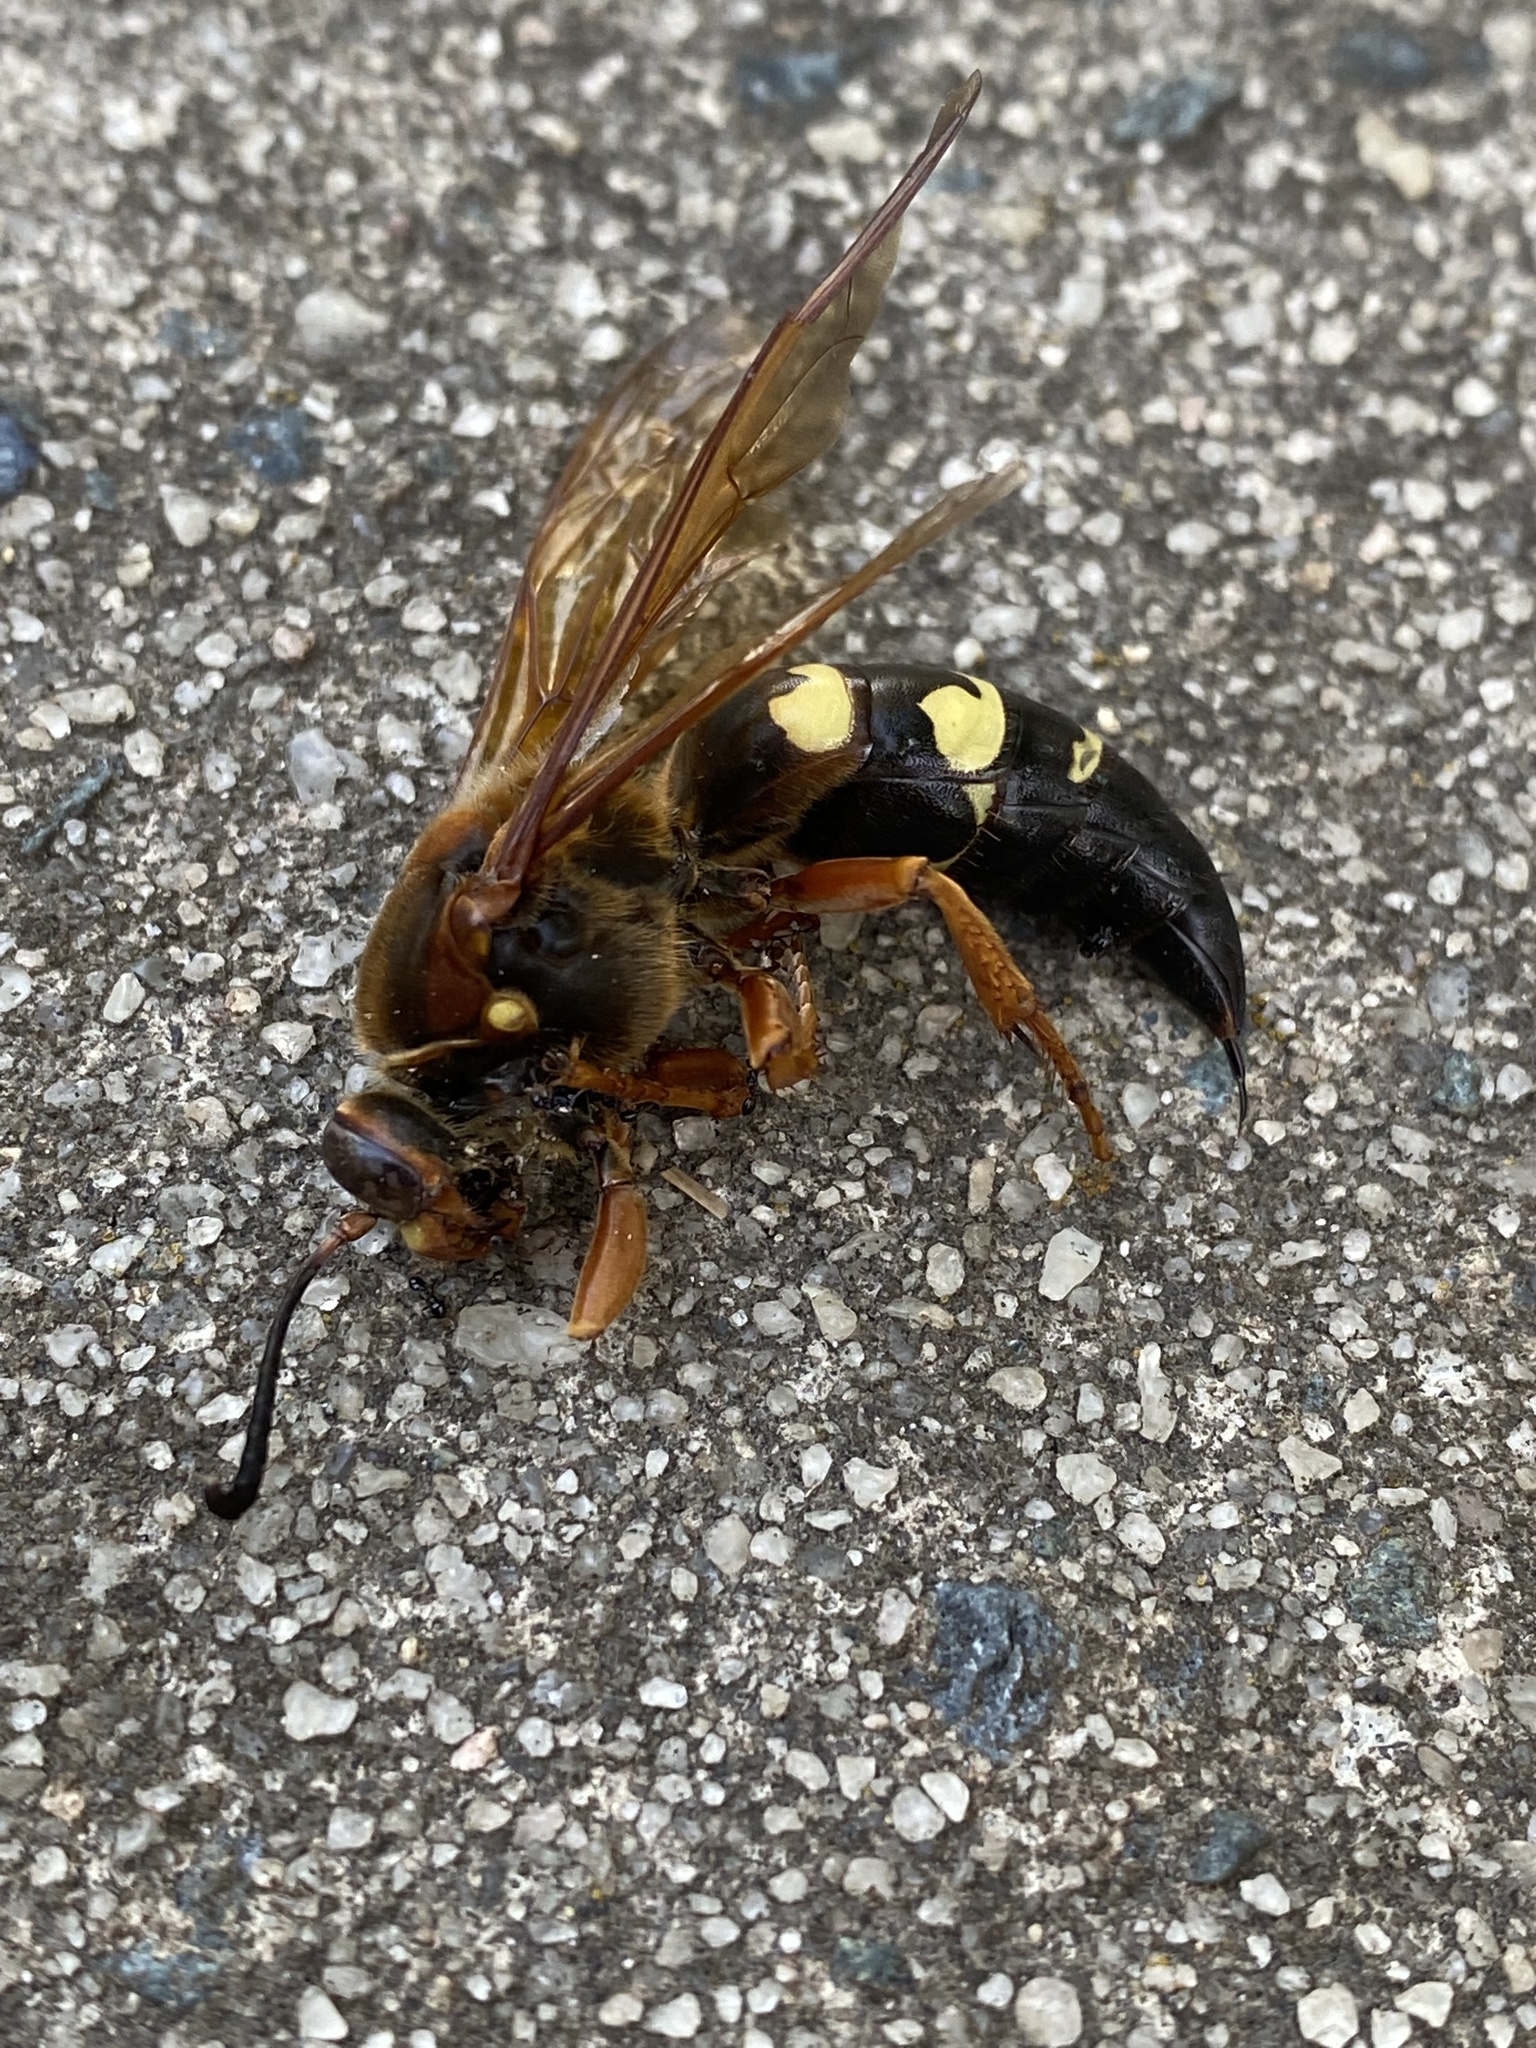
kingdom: Animalia
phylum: Arthropoda
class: Insecta
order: Hymenoptera
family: Crabronidae
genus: Sphecius
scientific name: Sphecius speciosus
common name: Cicada killer
